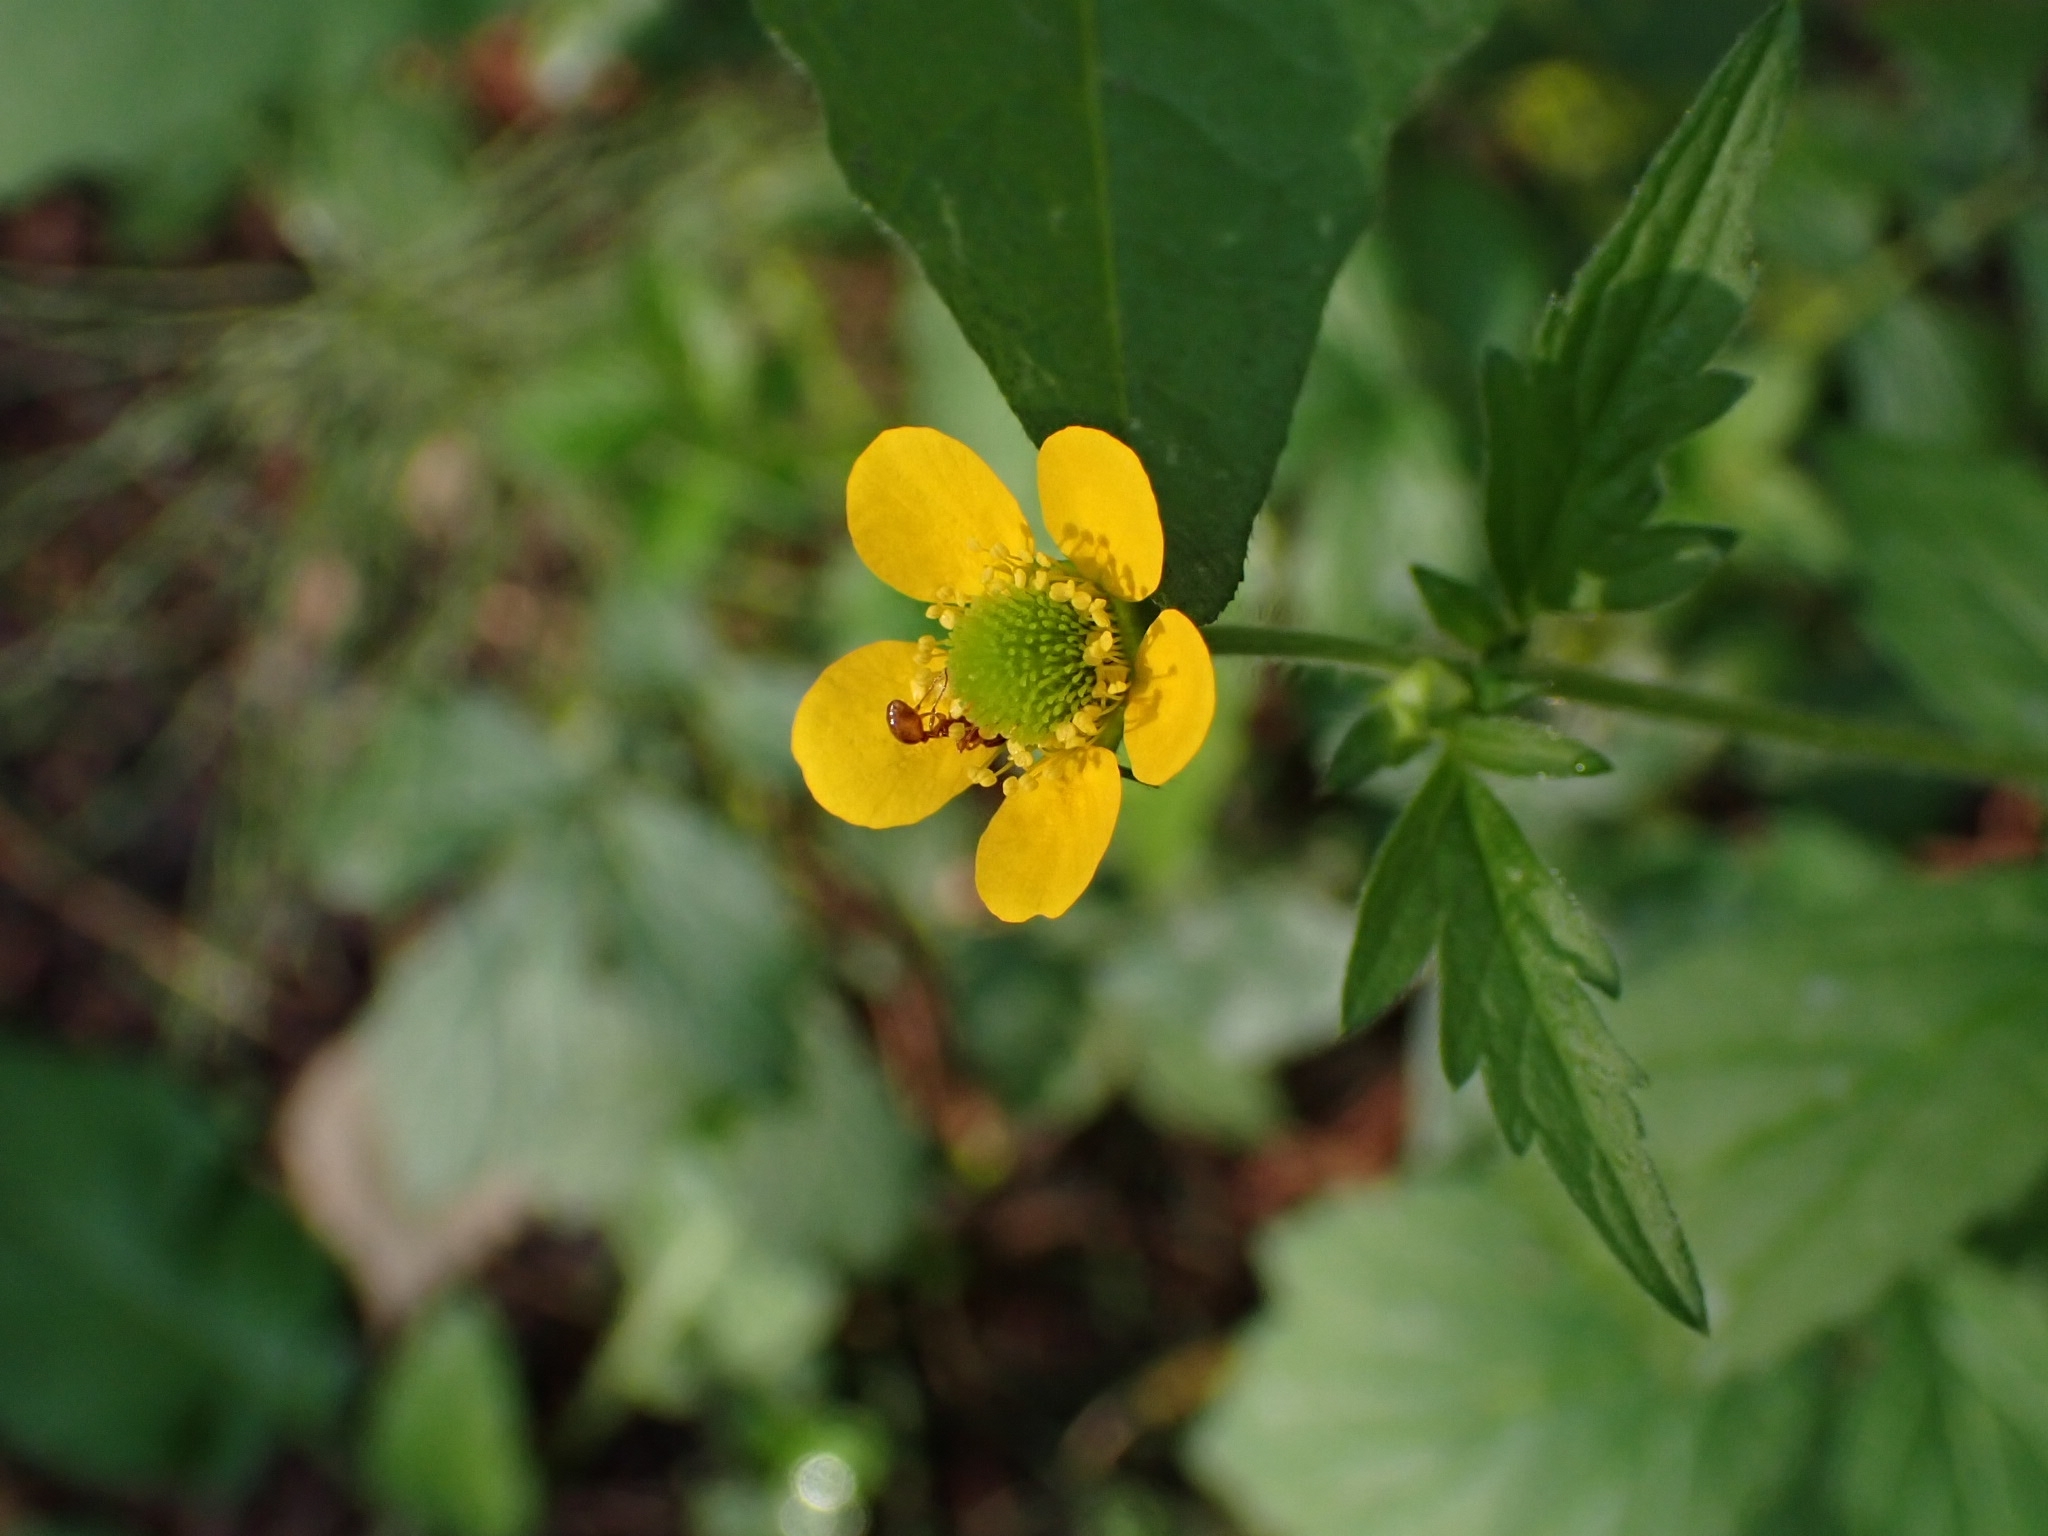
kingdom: Plantae
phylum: Tracheophyta
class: Magnoliopsida
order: Rosales
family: Rosaceae
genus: Geum
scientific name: Geum aleppicum
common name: Yellow avens
